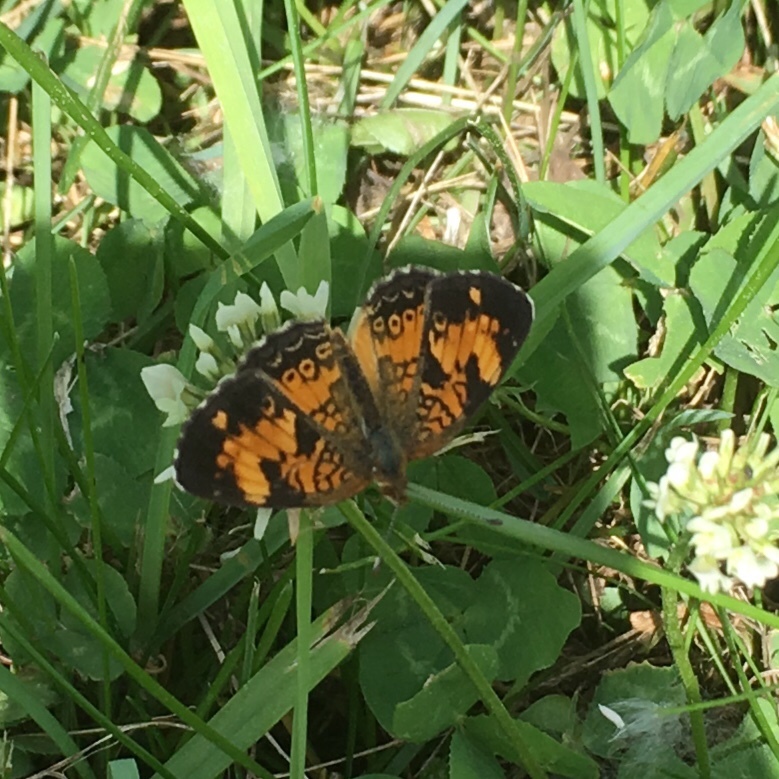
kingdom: Animalia
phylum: Arthropoda
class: Insecta
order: Lepidoptera
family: Nymphalidae
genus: Phyciodes
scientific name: Phyciodes tharos
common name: Pearl crescent
